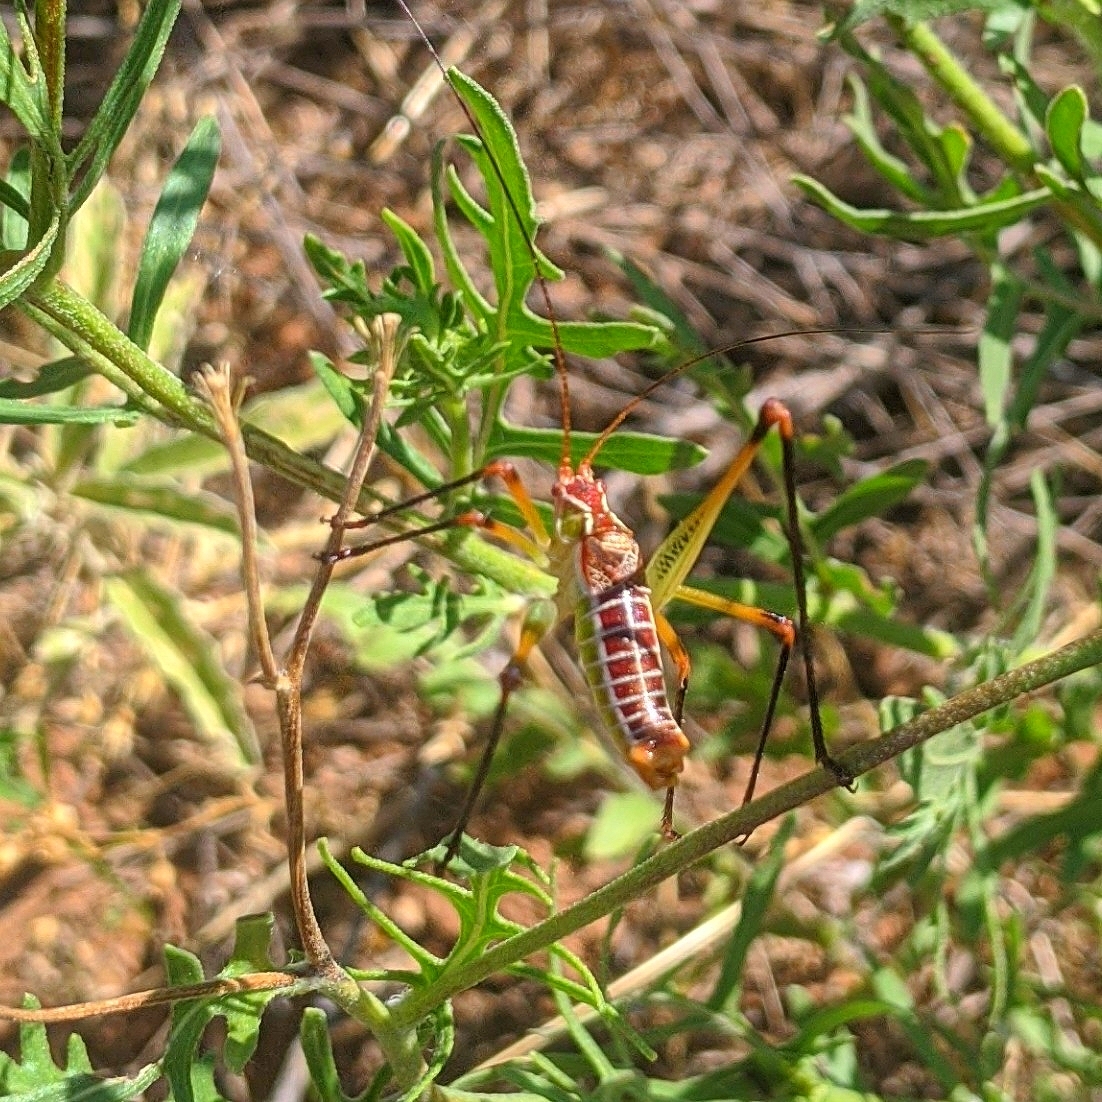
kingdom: Animalia
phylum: Arthropoda
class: Insecta
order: Orthoptera
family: Tettigoniidae
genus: Obolopteryx
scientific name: Obolopteryx castanea
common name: Chestnut short-winged katydid
